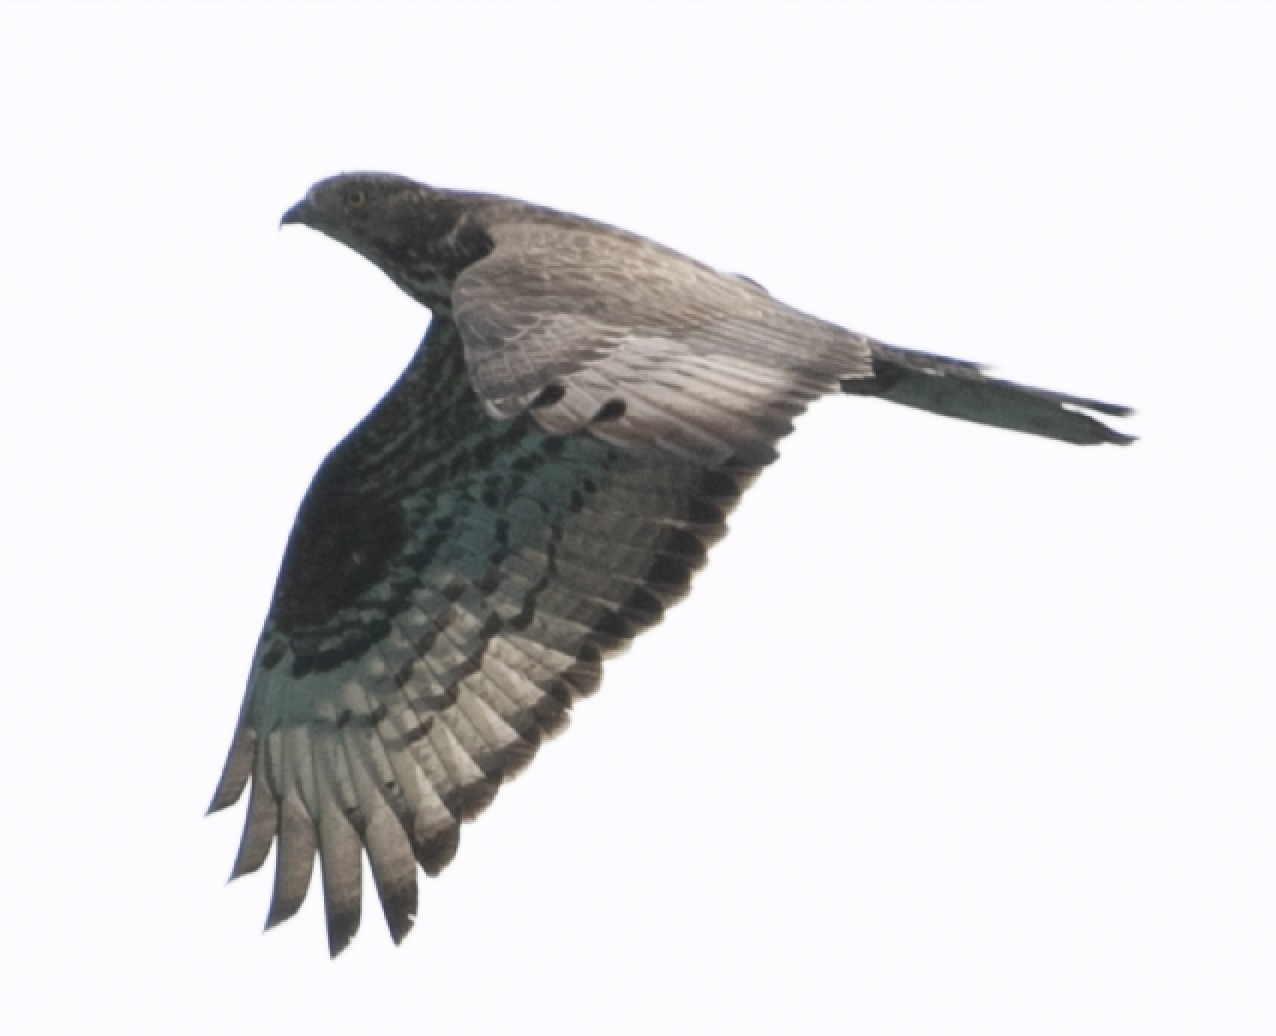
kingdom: Animalia
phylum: Chordata
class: Aves
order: Accipitriformes
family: Accipitridae
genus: Pernis
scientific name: Pernis apivorus
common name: European honey buzzard
